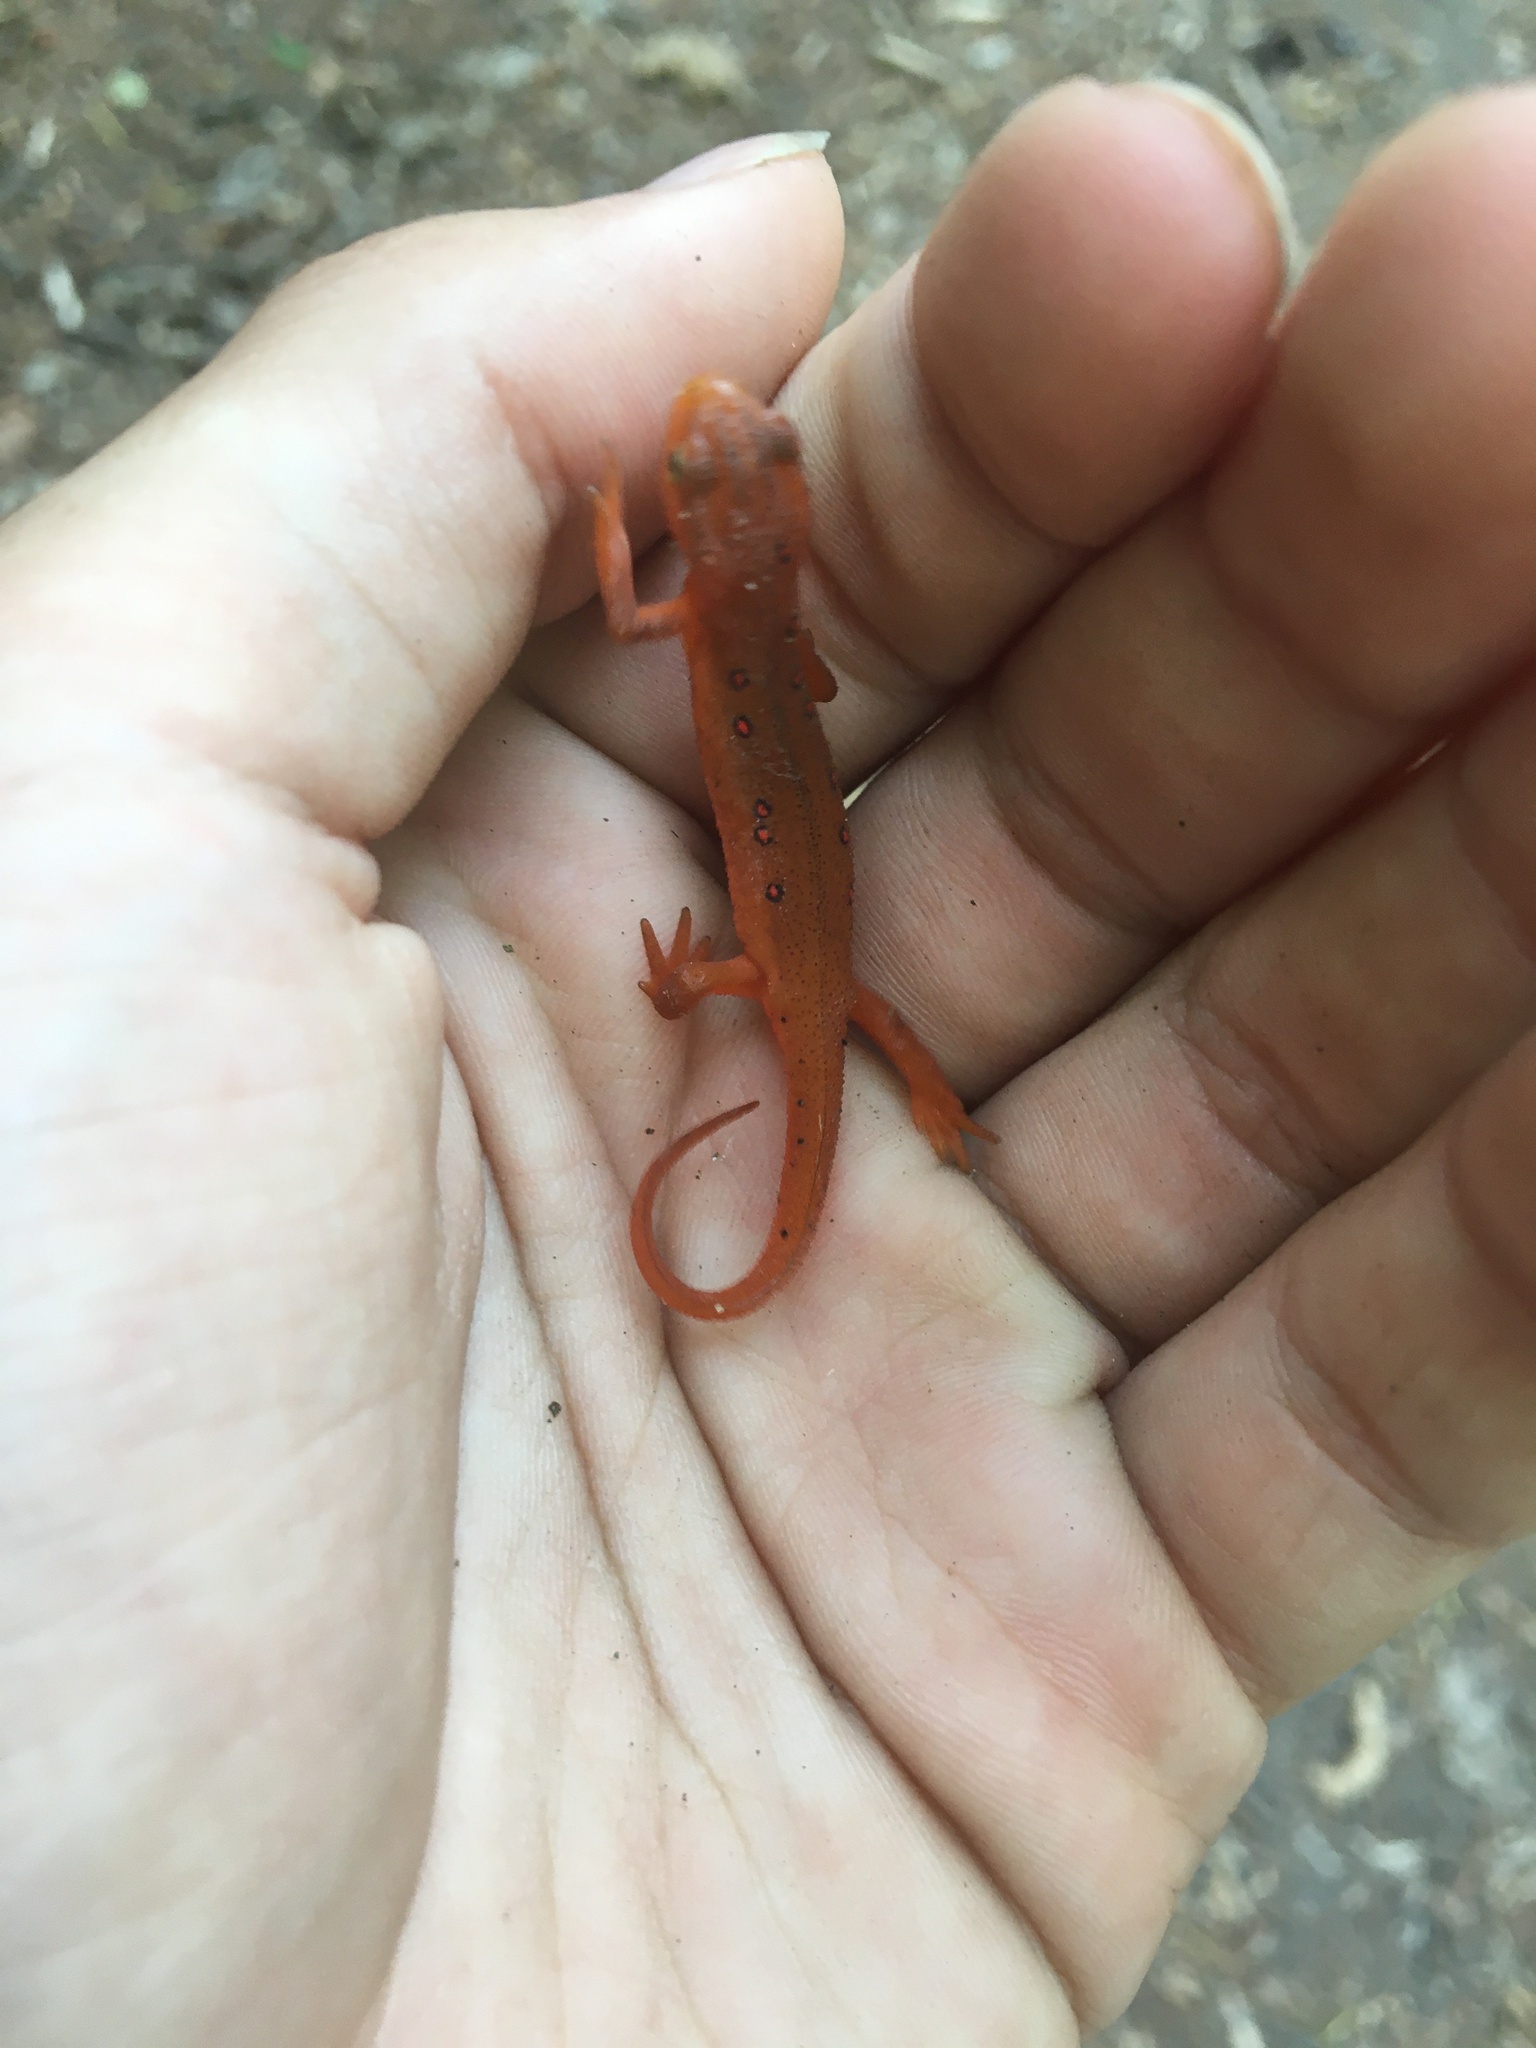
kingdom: Animalia
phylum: Chordata
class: Amphibia
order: Caudata
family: Salamandridae
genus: Notophthalmus
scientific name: Notophthalmus viridescens
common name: Eastern newt
